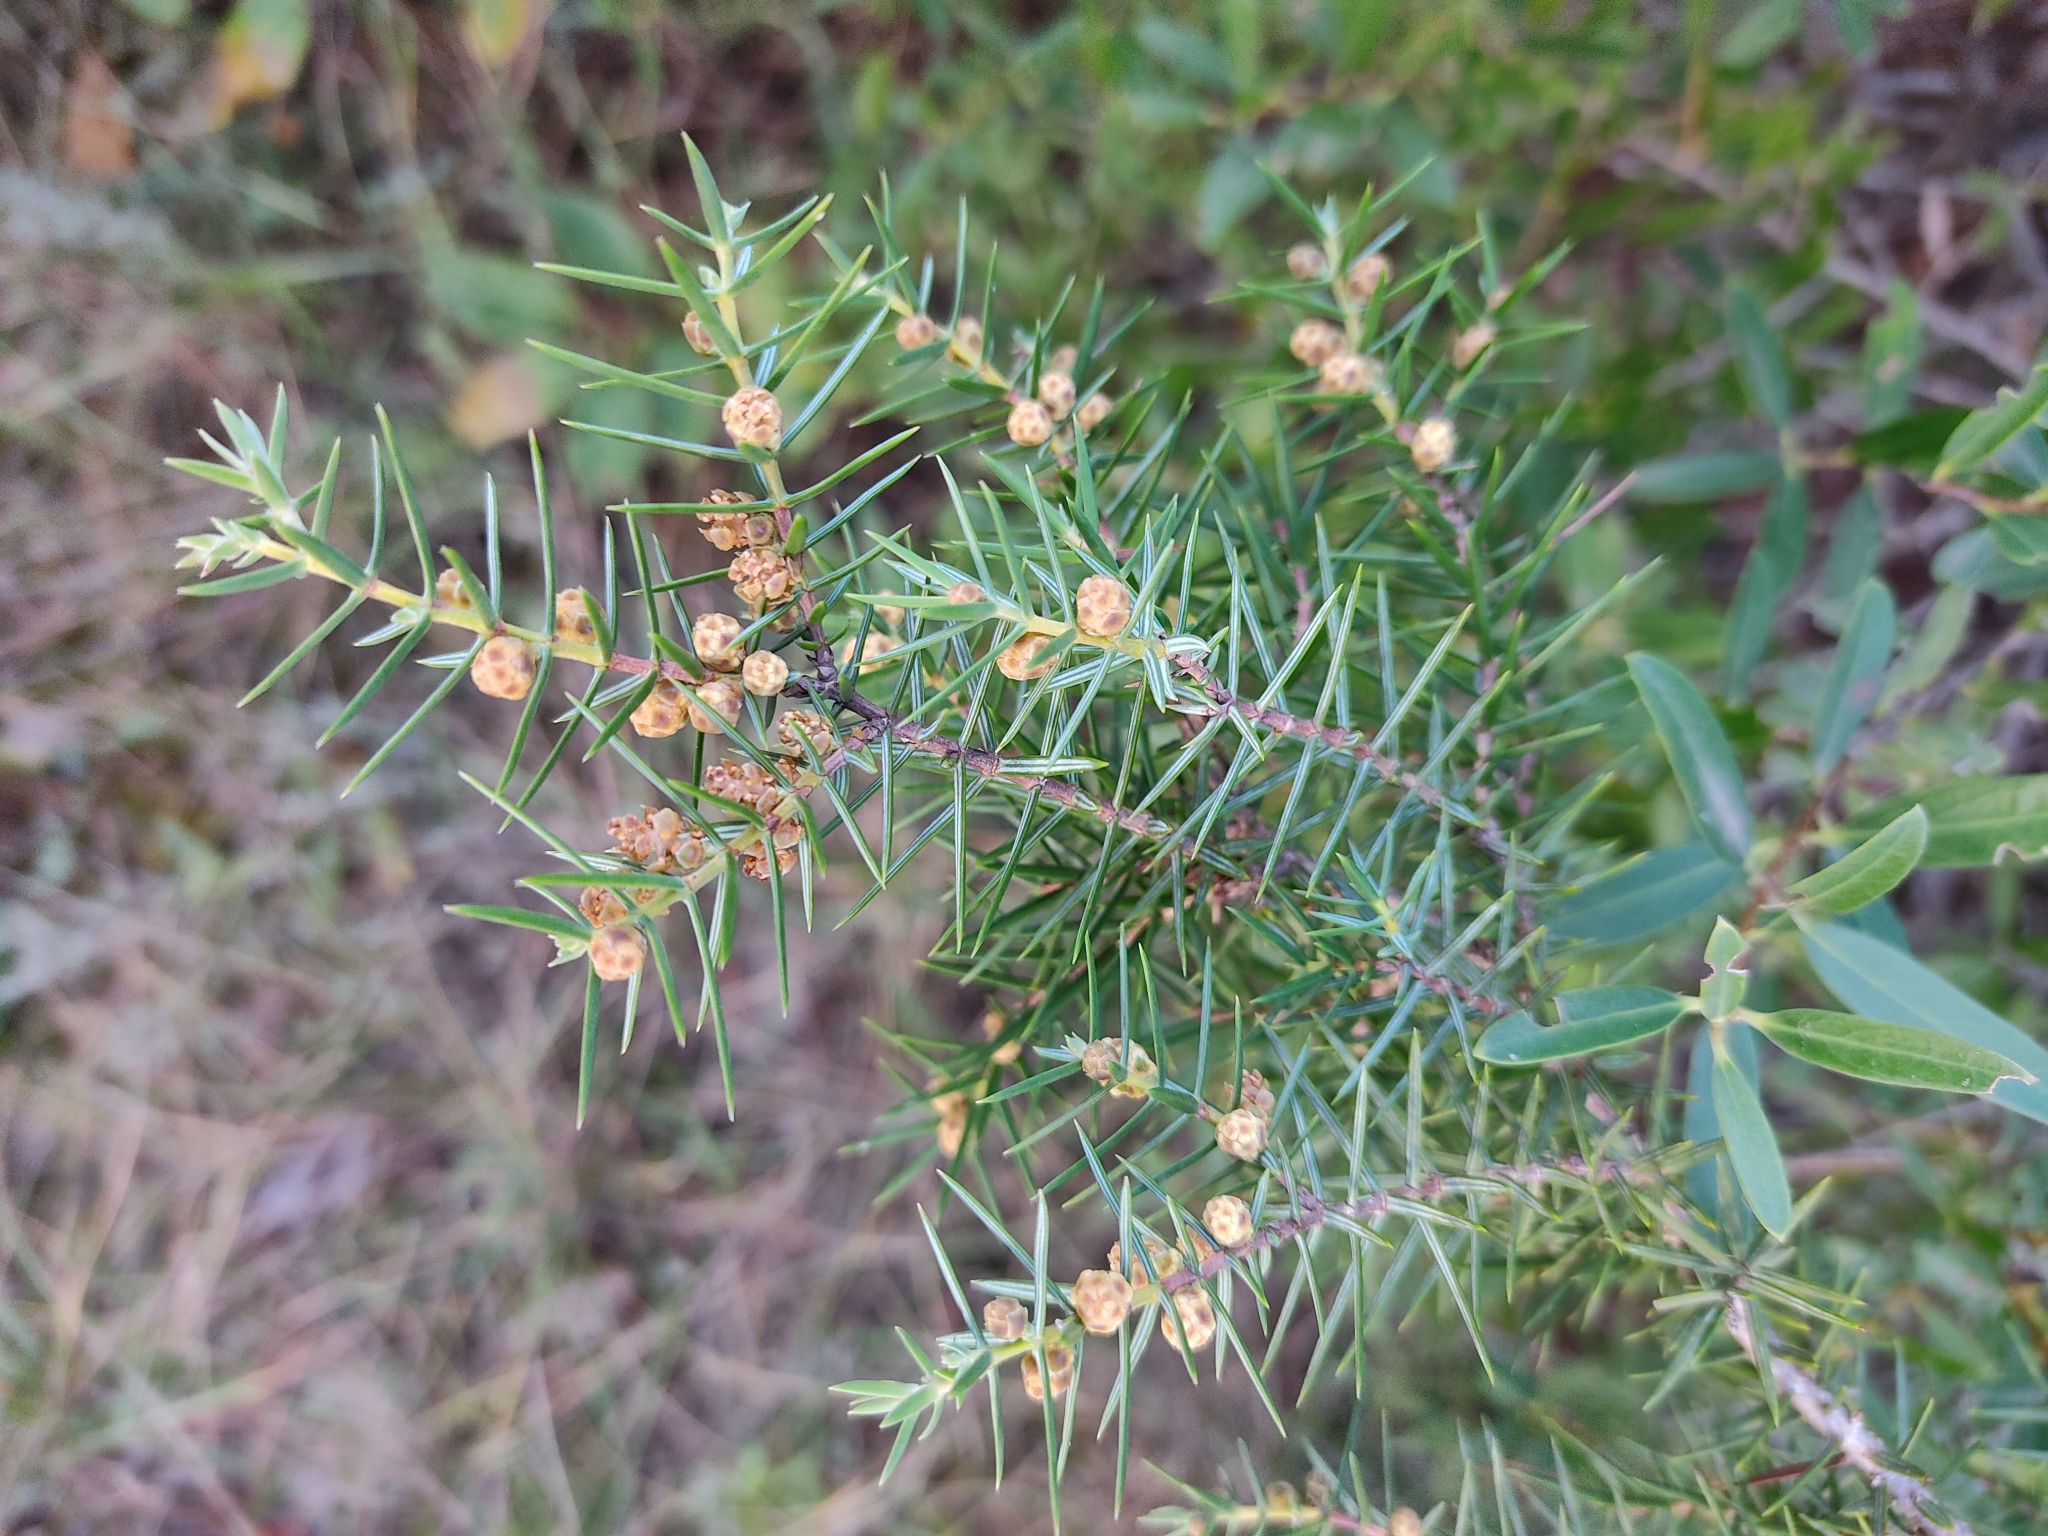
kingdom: Plantae
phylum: Tracheophyta
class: Pinopsida
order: Pinales
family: Cupressaceae
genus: Juniperus
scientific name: Juniperus oxycedrus
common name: Prickly juniper
